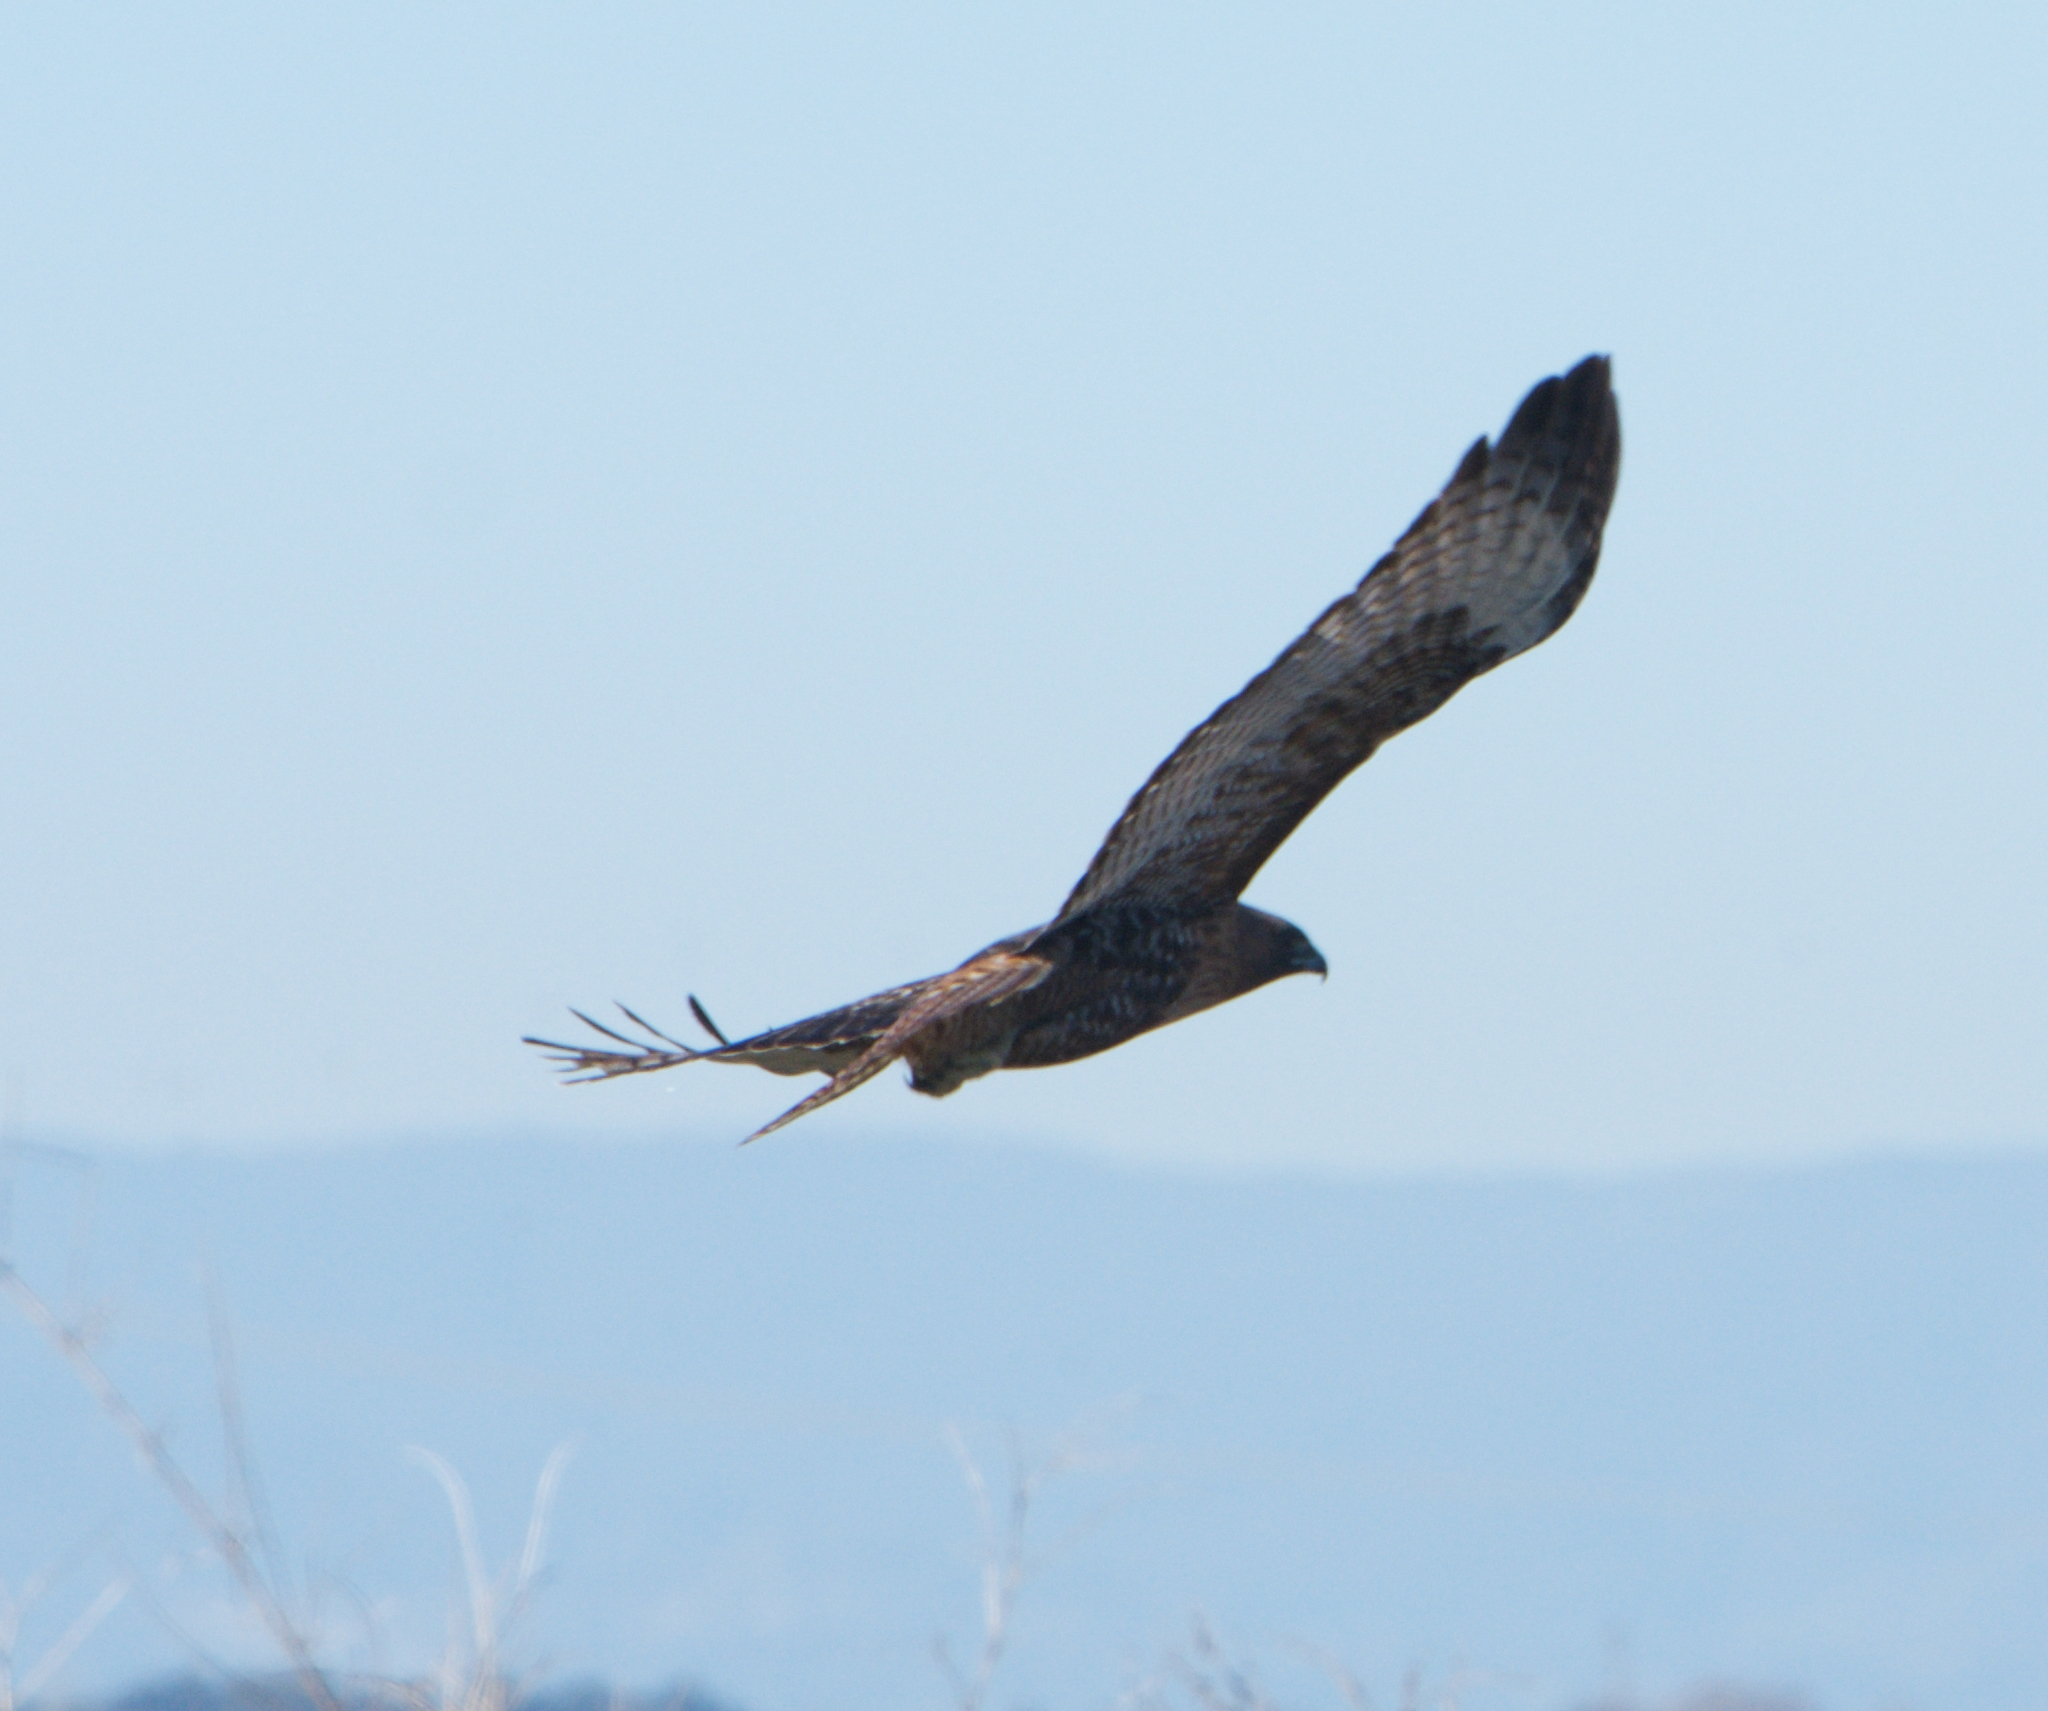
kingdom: Animalia
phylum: Chordata
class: Aves
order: Accipitriformes
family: Accipitridae
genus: Buteo
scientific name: Buteo jamaicensis
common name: Red-tailed hawk
